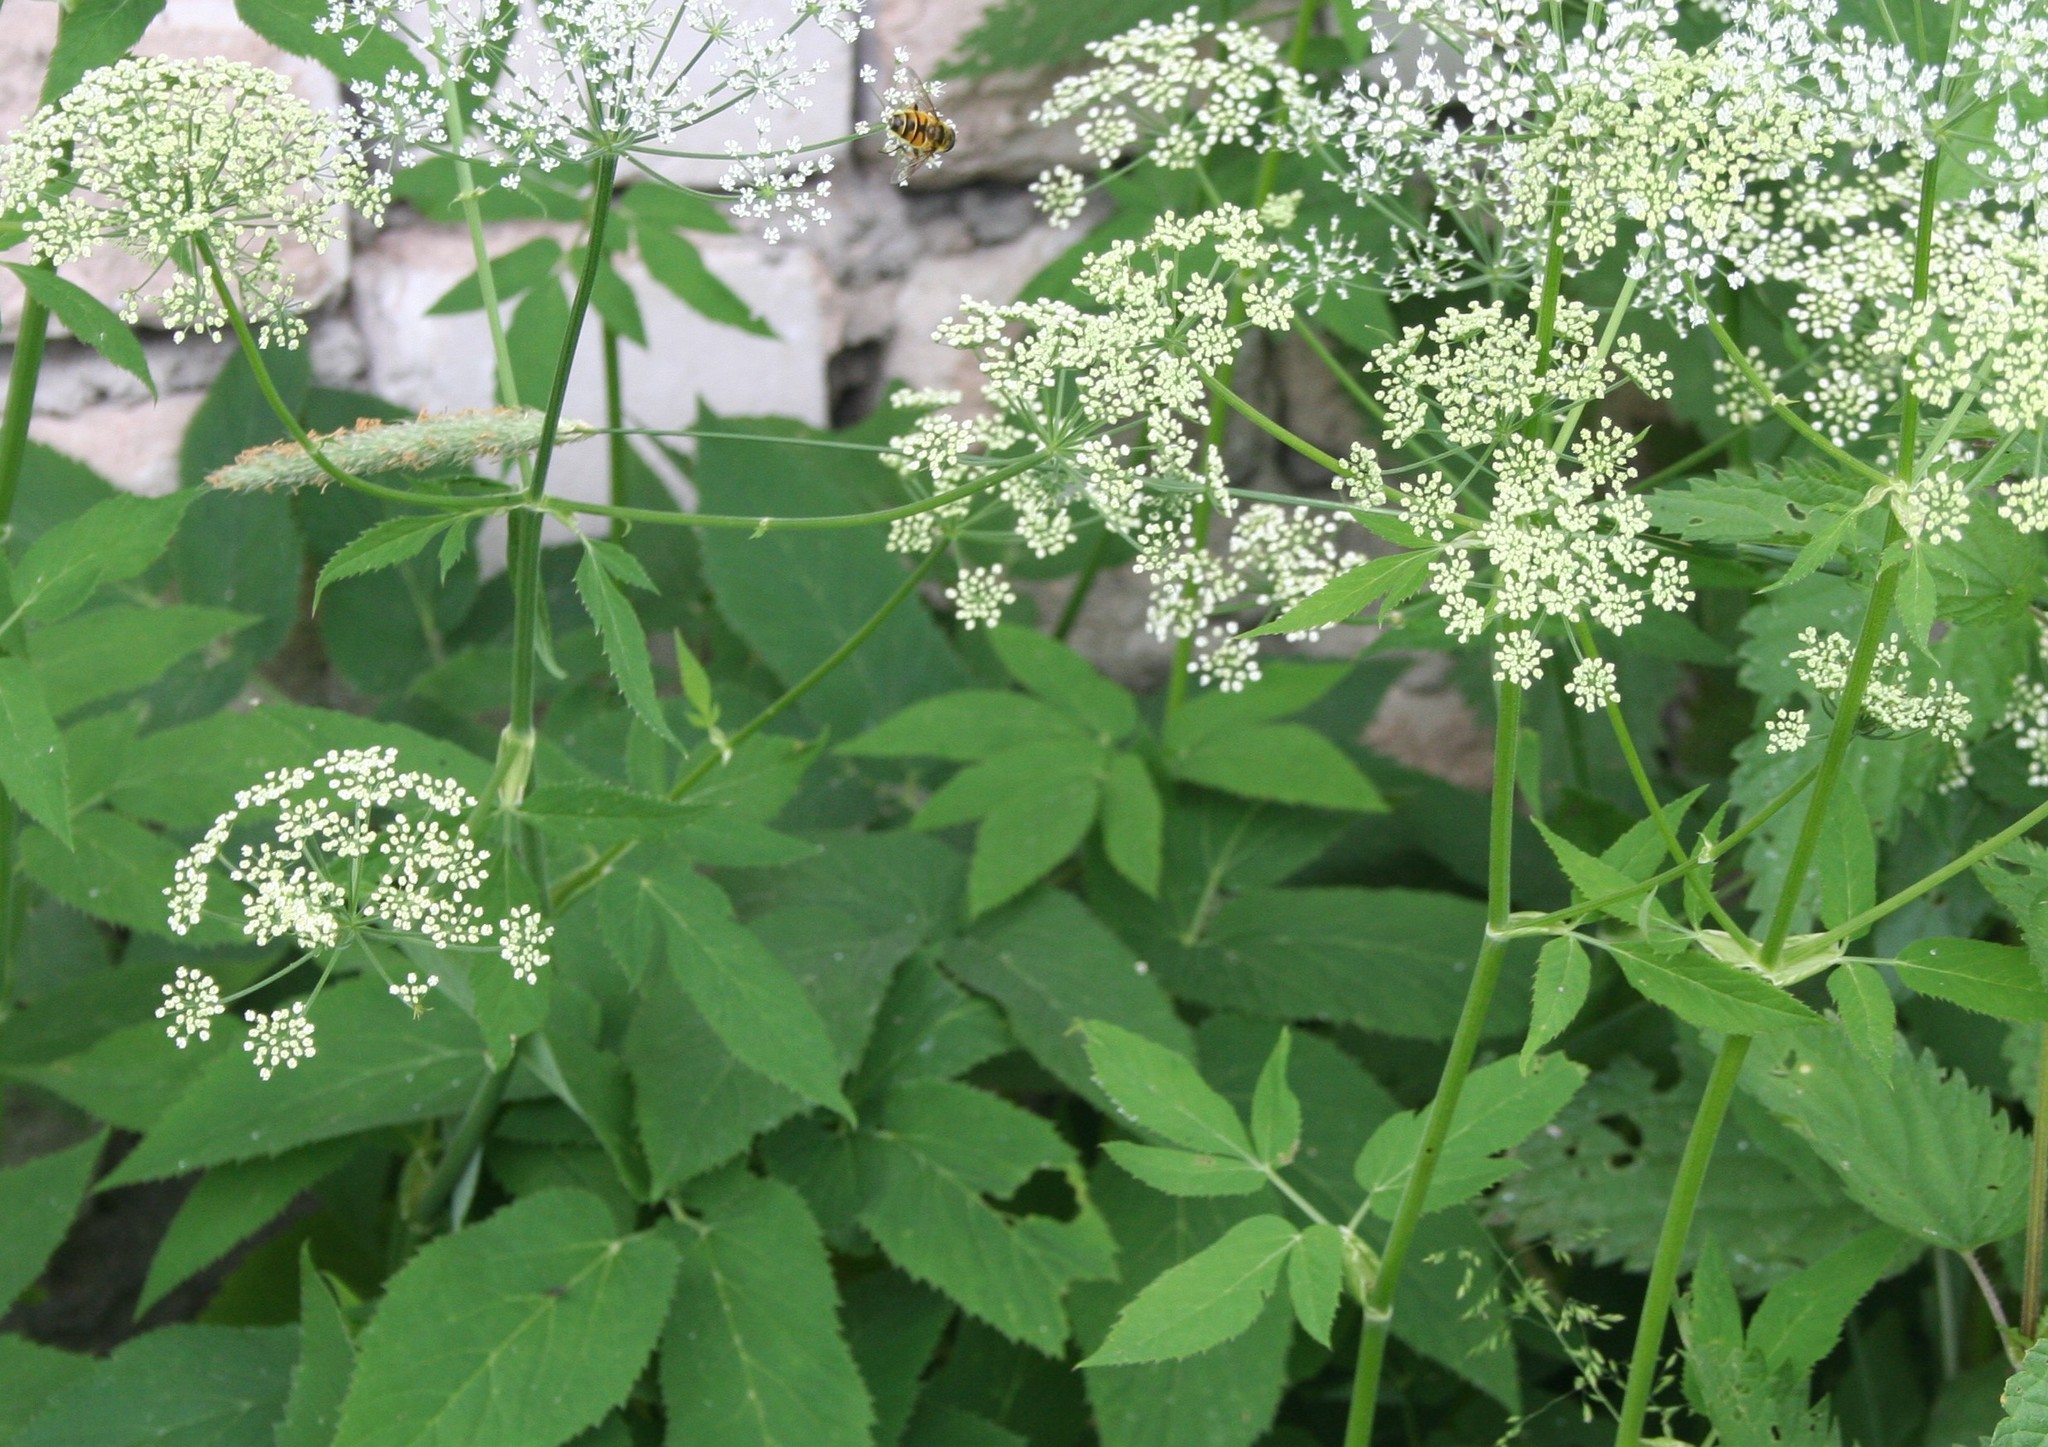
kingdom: Plantae
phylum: Tracheophyta
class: Magnoliopsida
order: Apiales
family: Apiaceae
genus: Aegopodium
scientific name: Aegopodium podagraria
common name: Ground-elder
